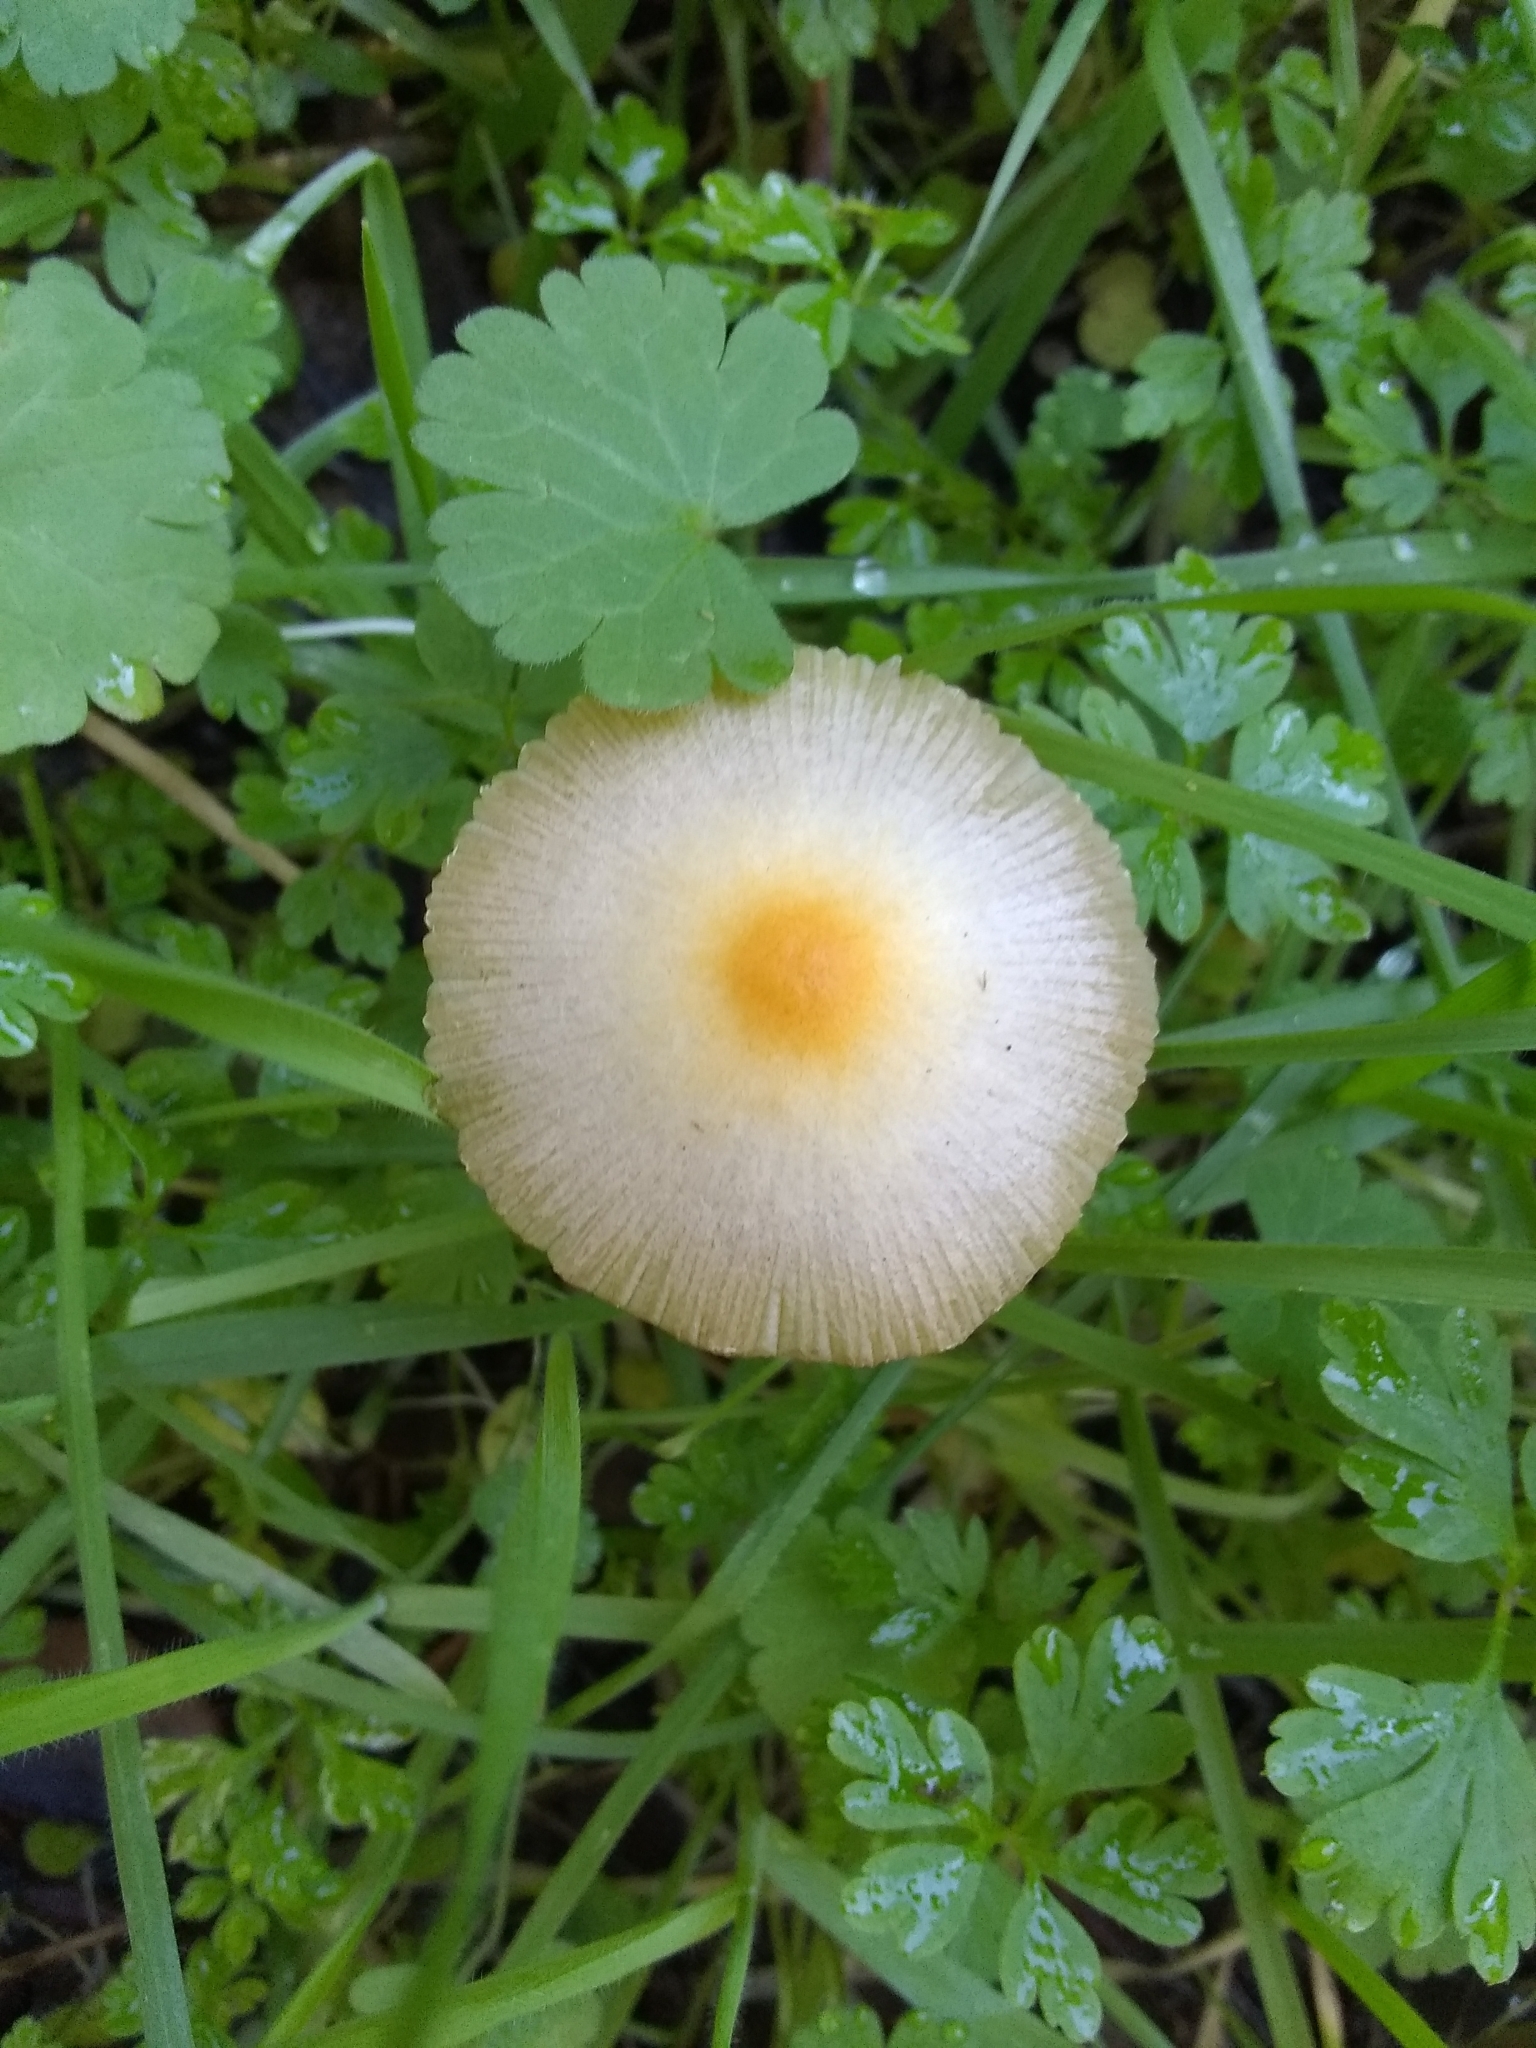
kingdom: Fungi
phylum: Basidiomycota
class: Agaricomycetes
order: Agaricales
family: Bolbitiaceae
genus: Bolbitius
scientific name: Bolbitius titubans
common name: Yellow fieldcap
